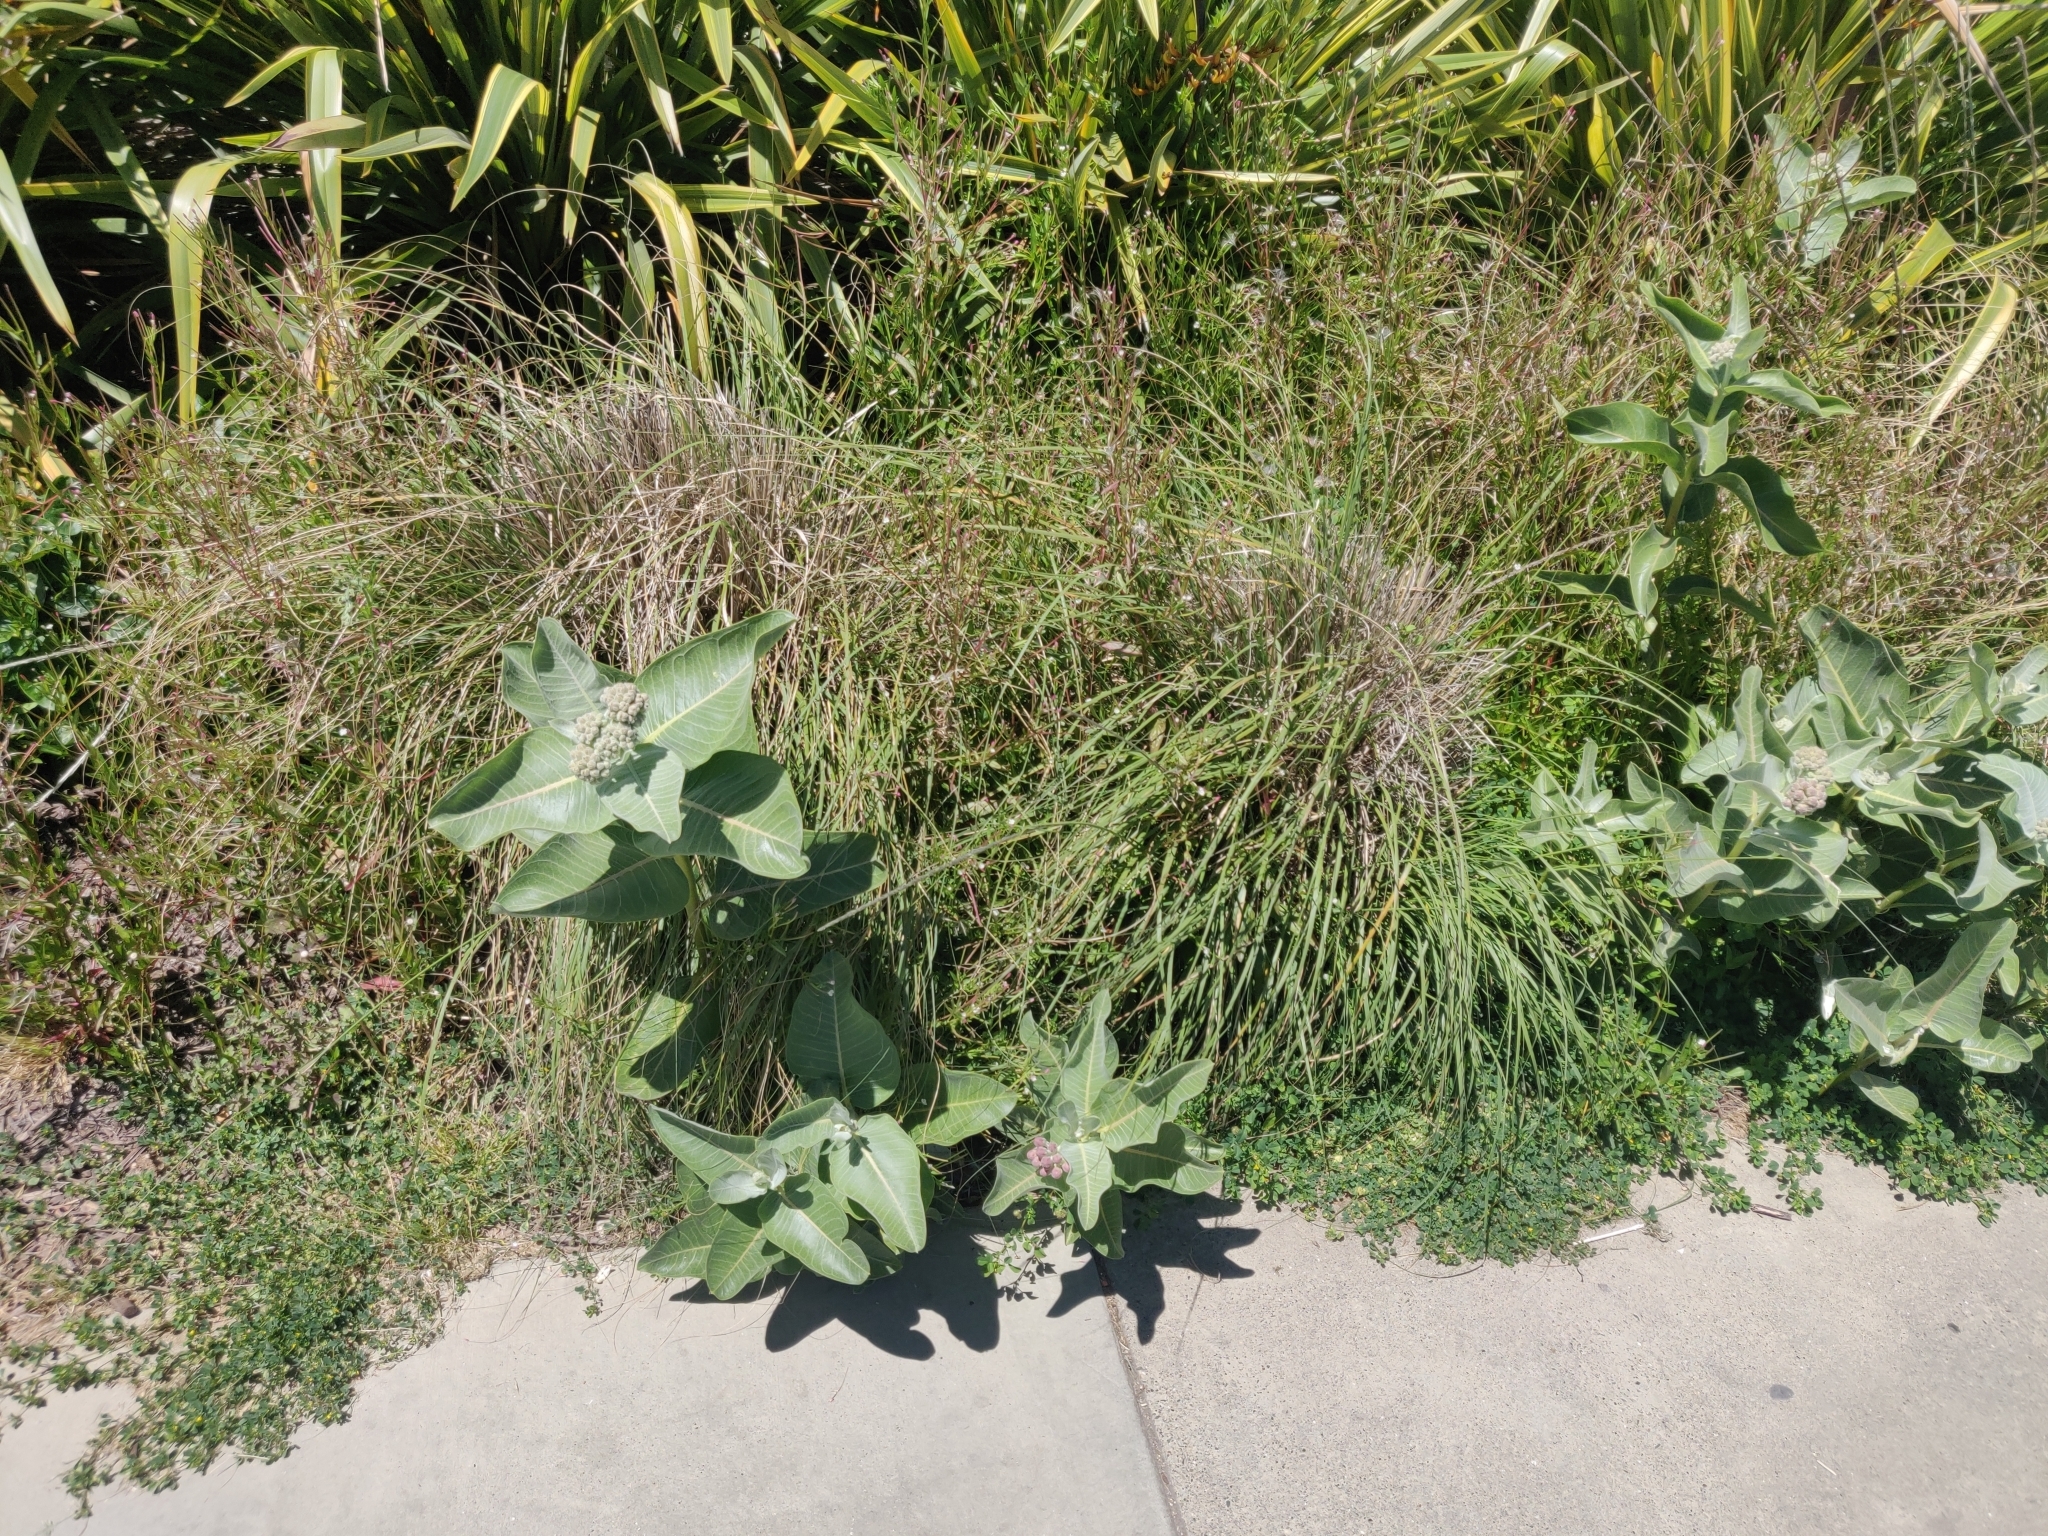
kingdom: Plantae
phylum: Tracheophyta
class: Magnoliopsida
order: Gentianales
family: Apocynaceae
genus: Asclepias
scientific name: Asclepias speciosa
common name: Showy milkweed
